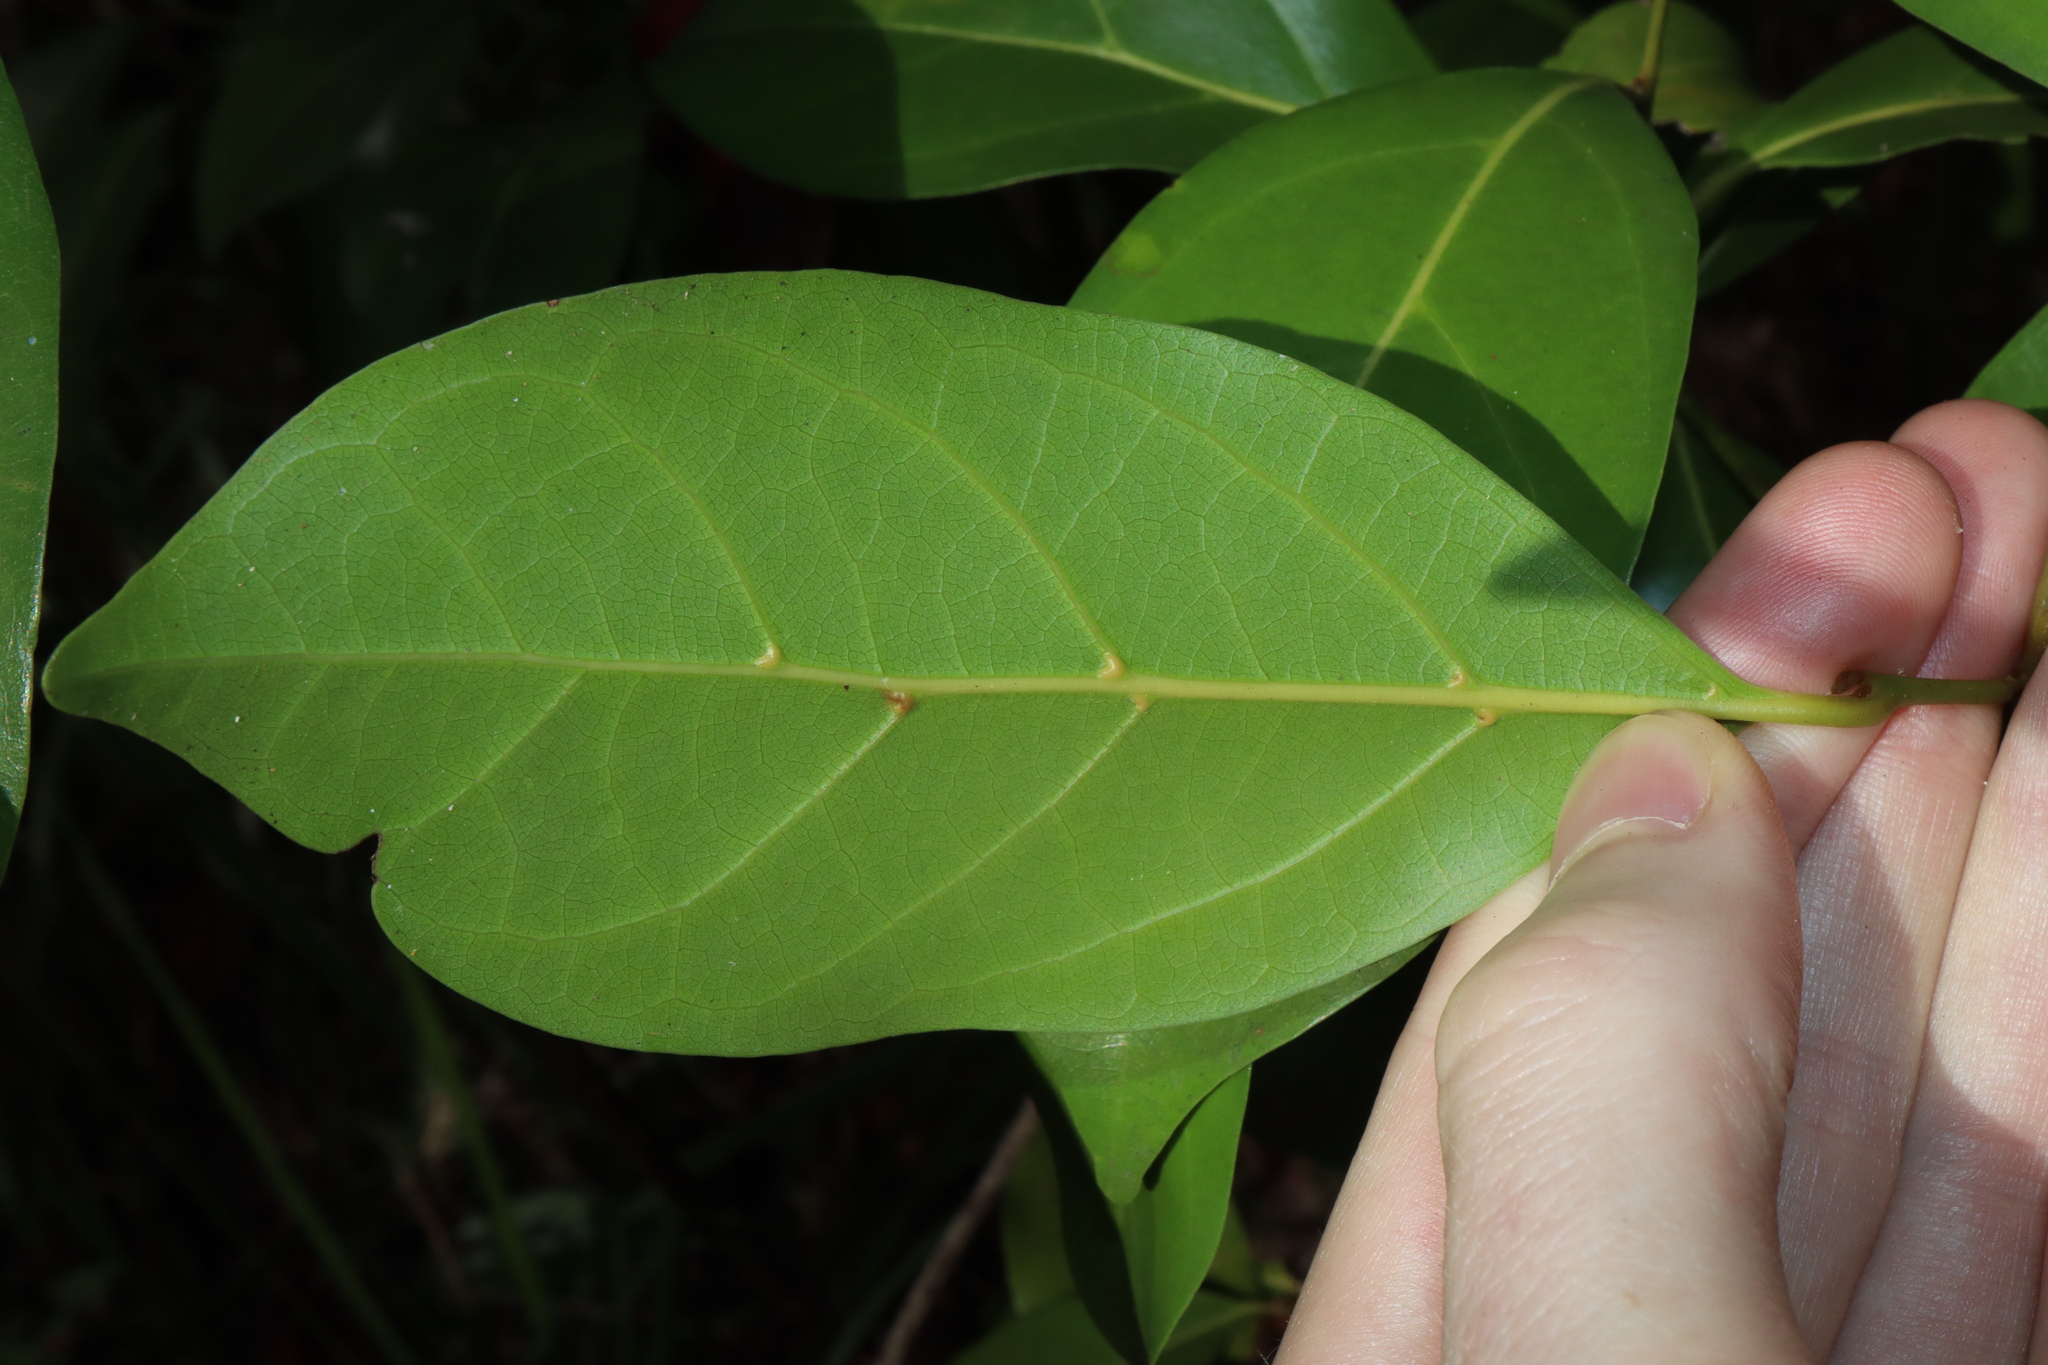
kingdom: Plantae
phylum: Tracheophyta
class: Magnoliopsida
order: Laurales
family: Lauraceae
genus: Endiandra
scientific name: Endiandra discolor
